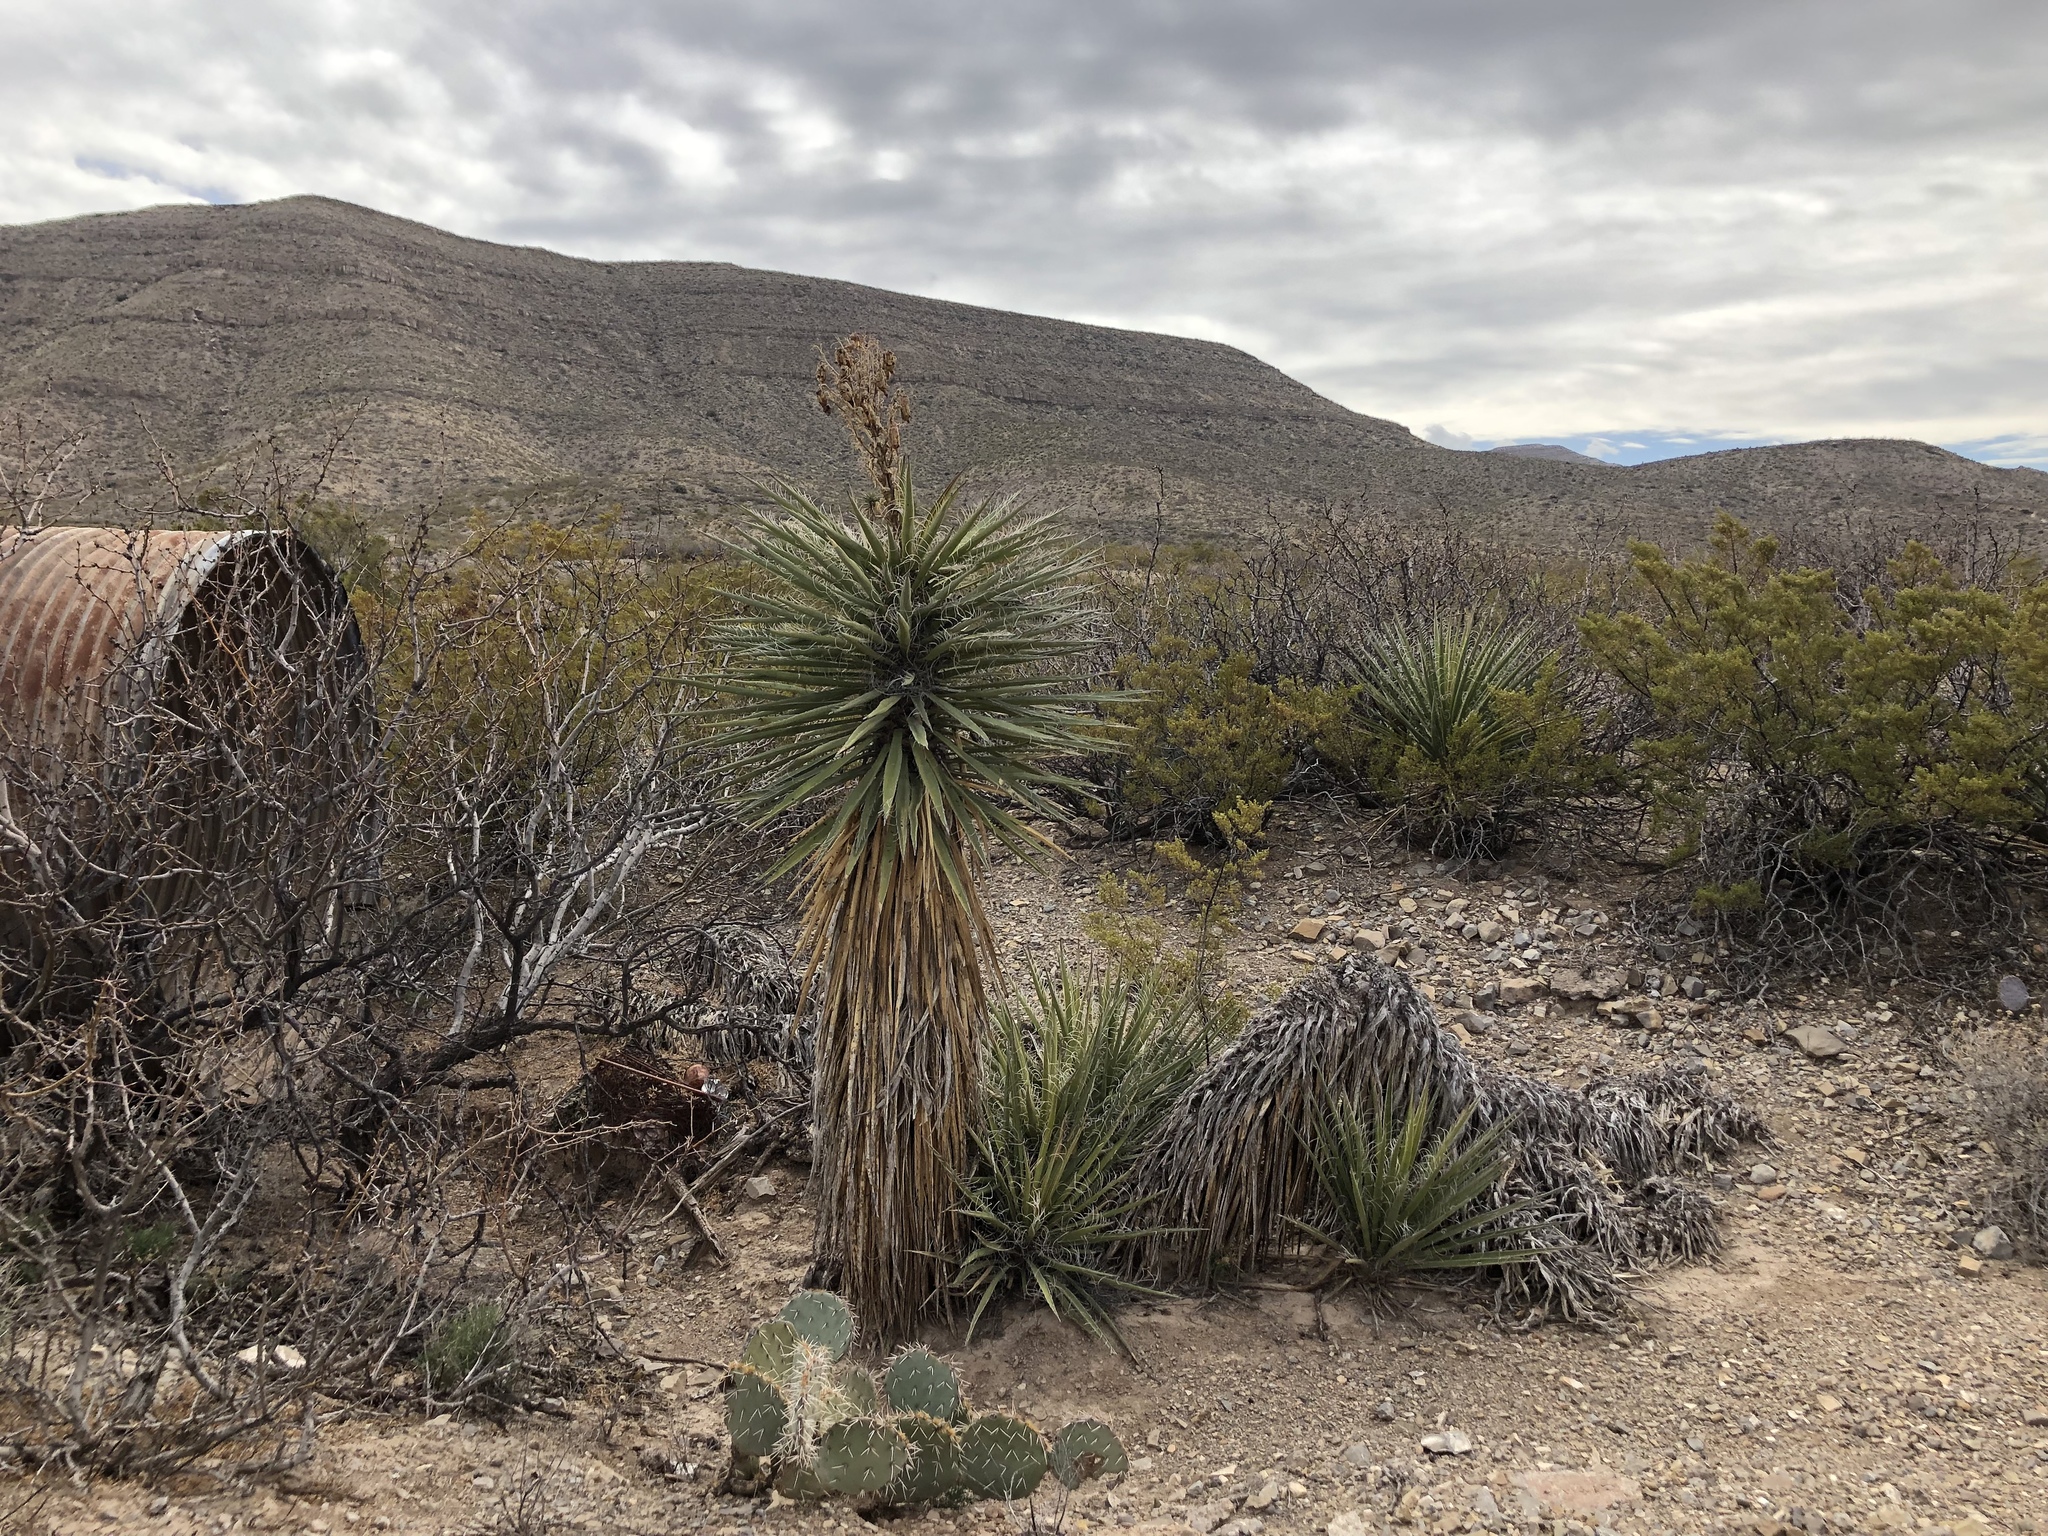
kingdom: Plantae
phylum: Tracheophyta
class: Liliopsida
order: Asparagales
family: Asparagaceae
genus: Yucca
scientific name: Yucca treculiana
